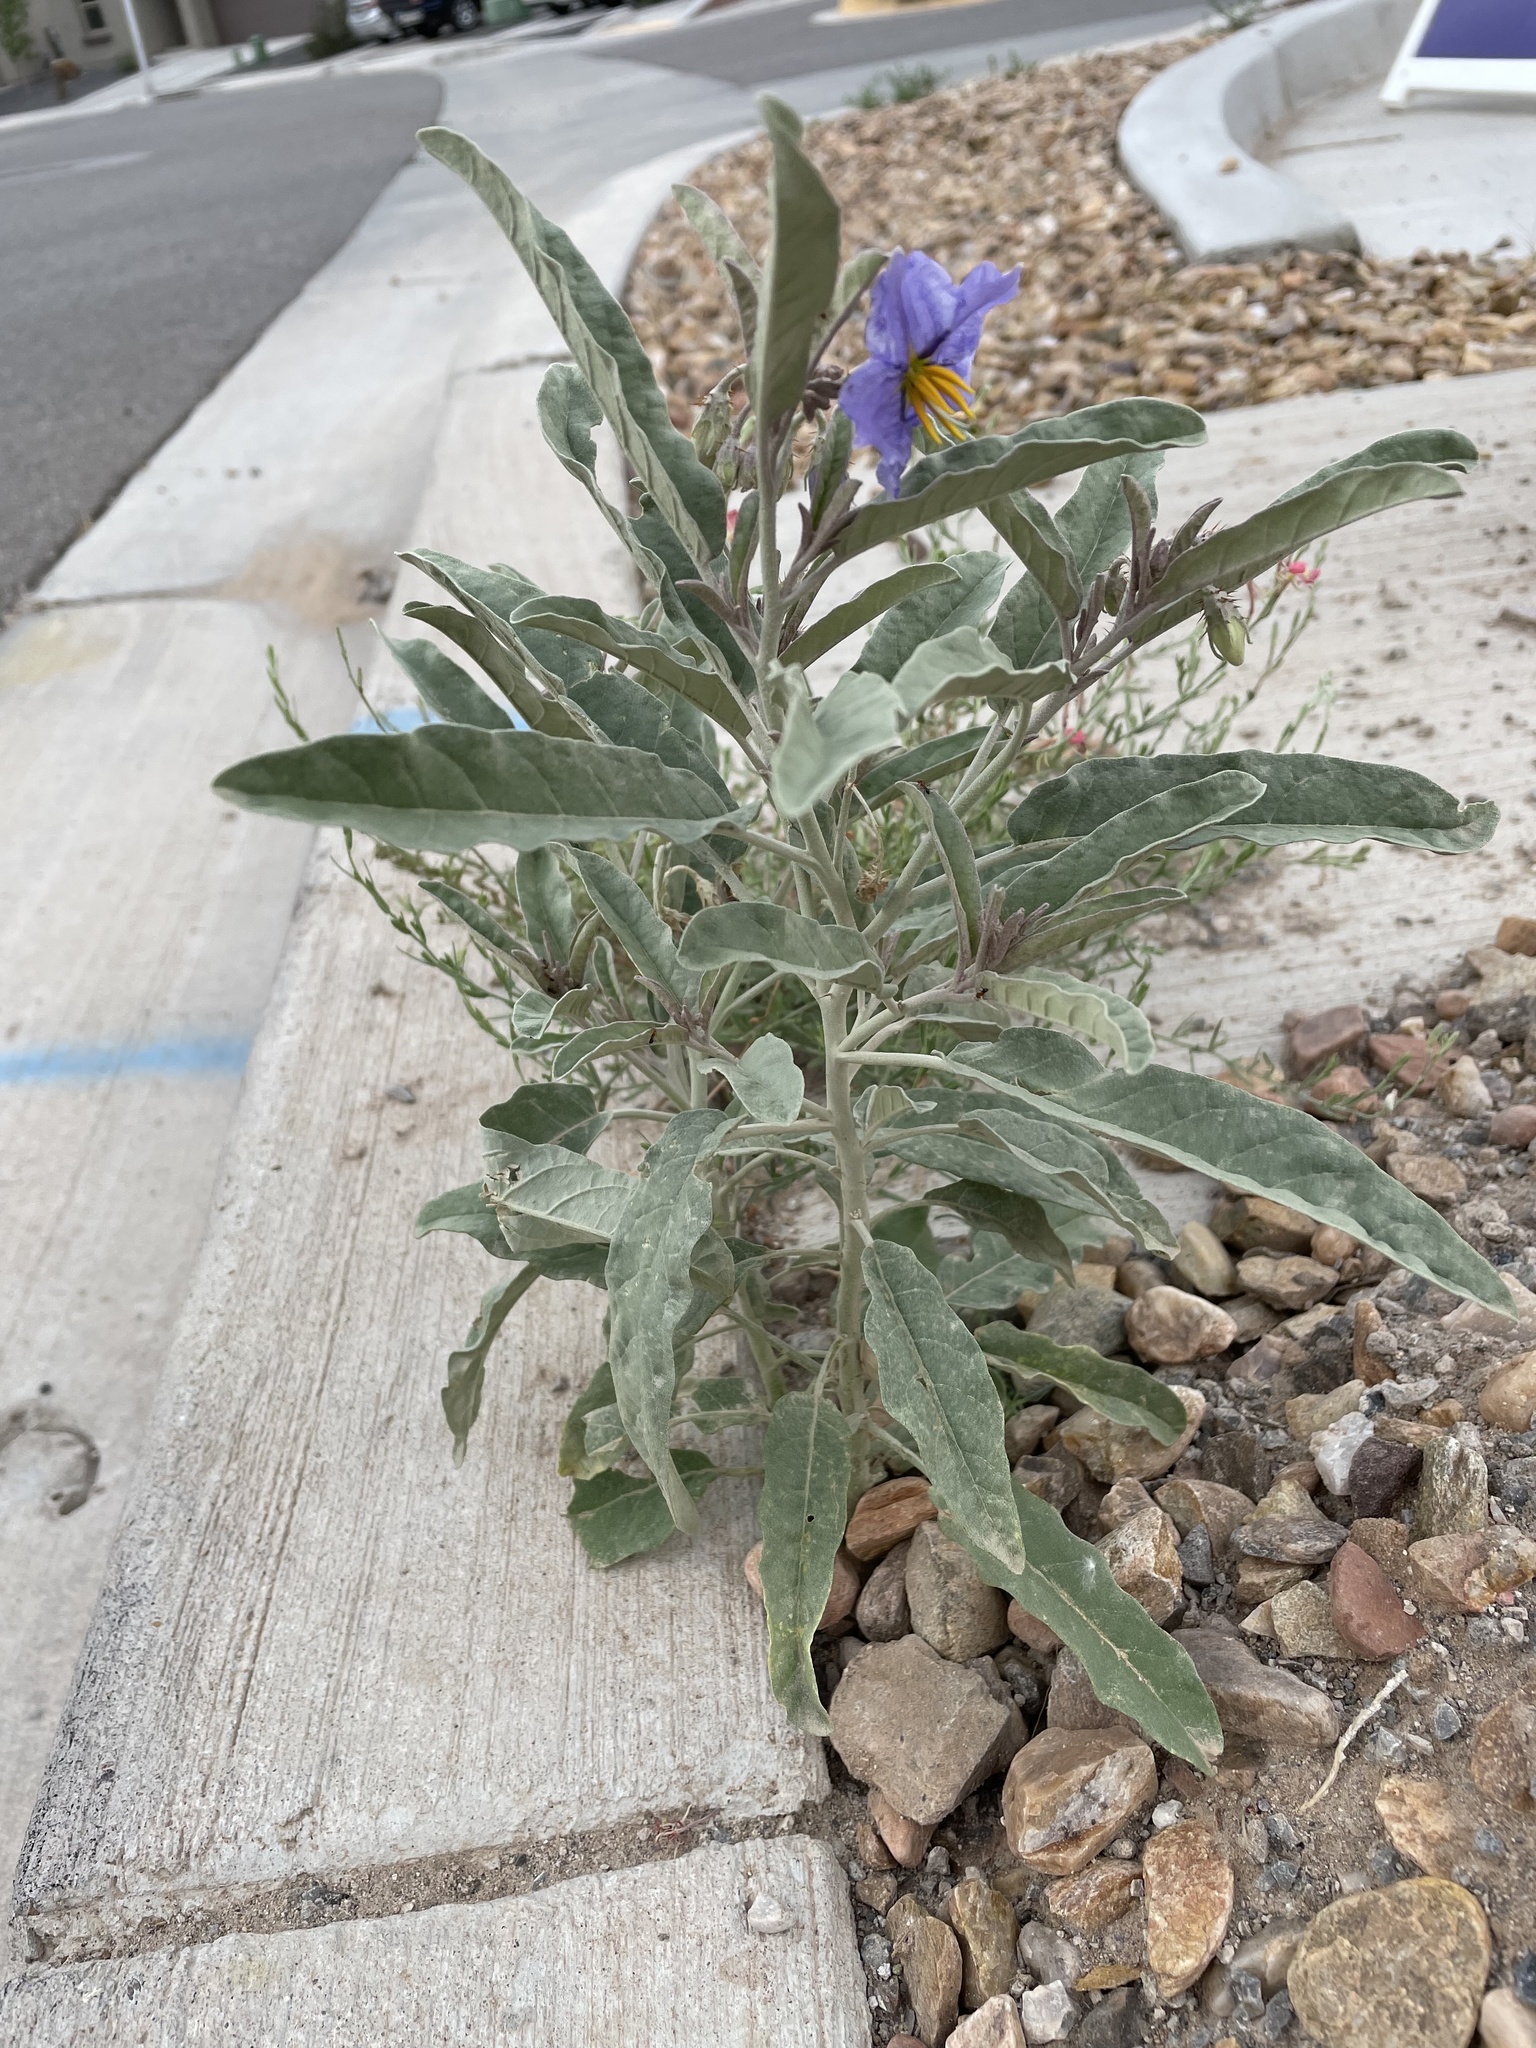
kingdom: Plantae
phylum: Tracheophyta
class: Magnoliopsida
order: Solanales
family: Solanaceae
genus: Solanum
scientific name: Solanum elaeagnifolium
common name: Silverleaf nightshade
